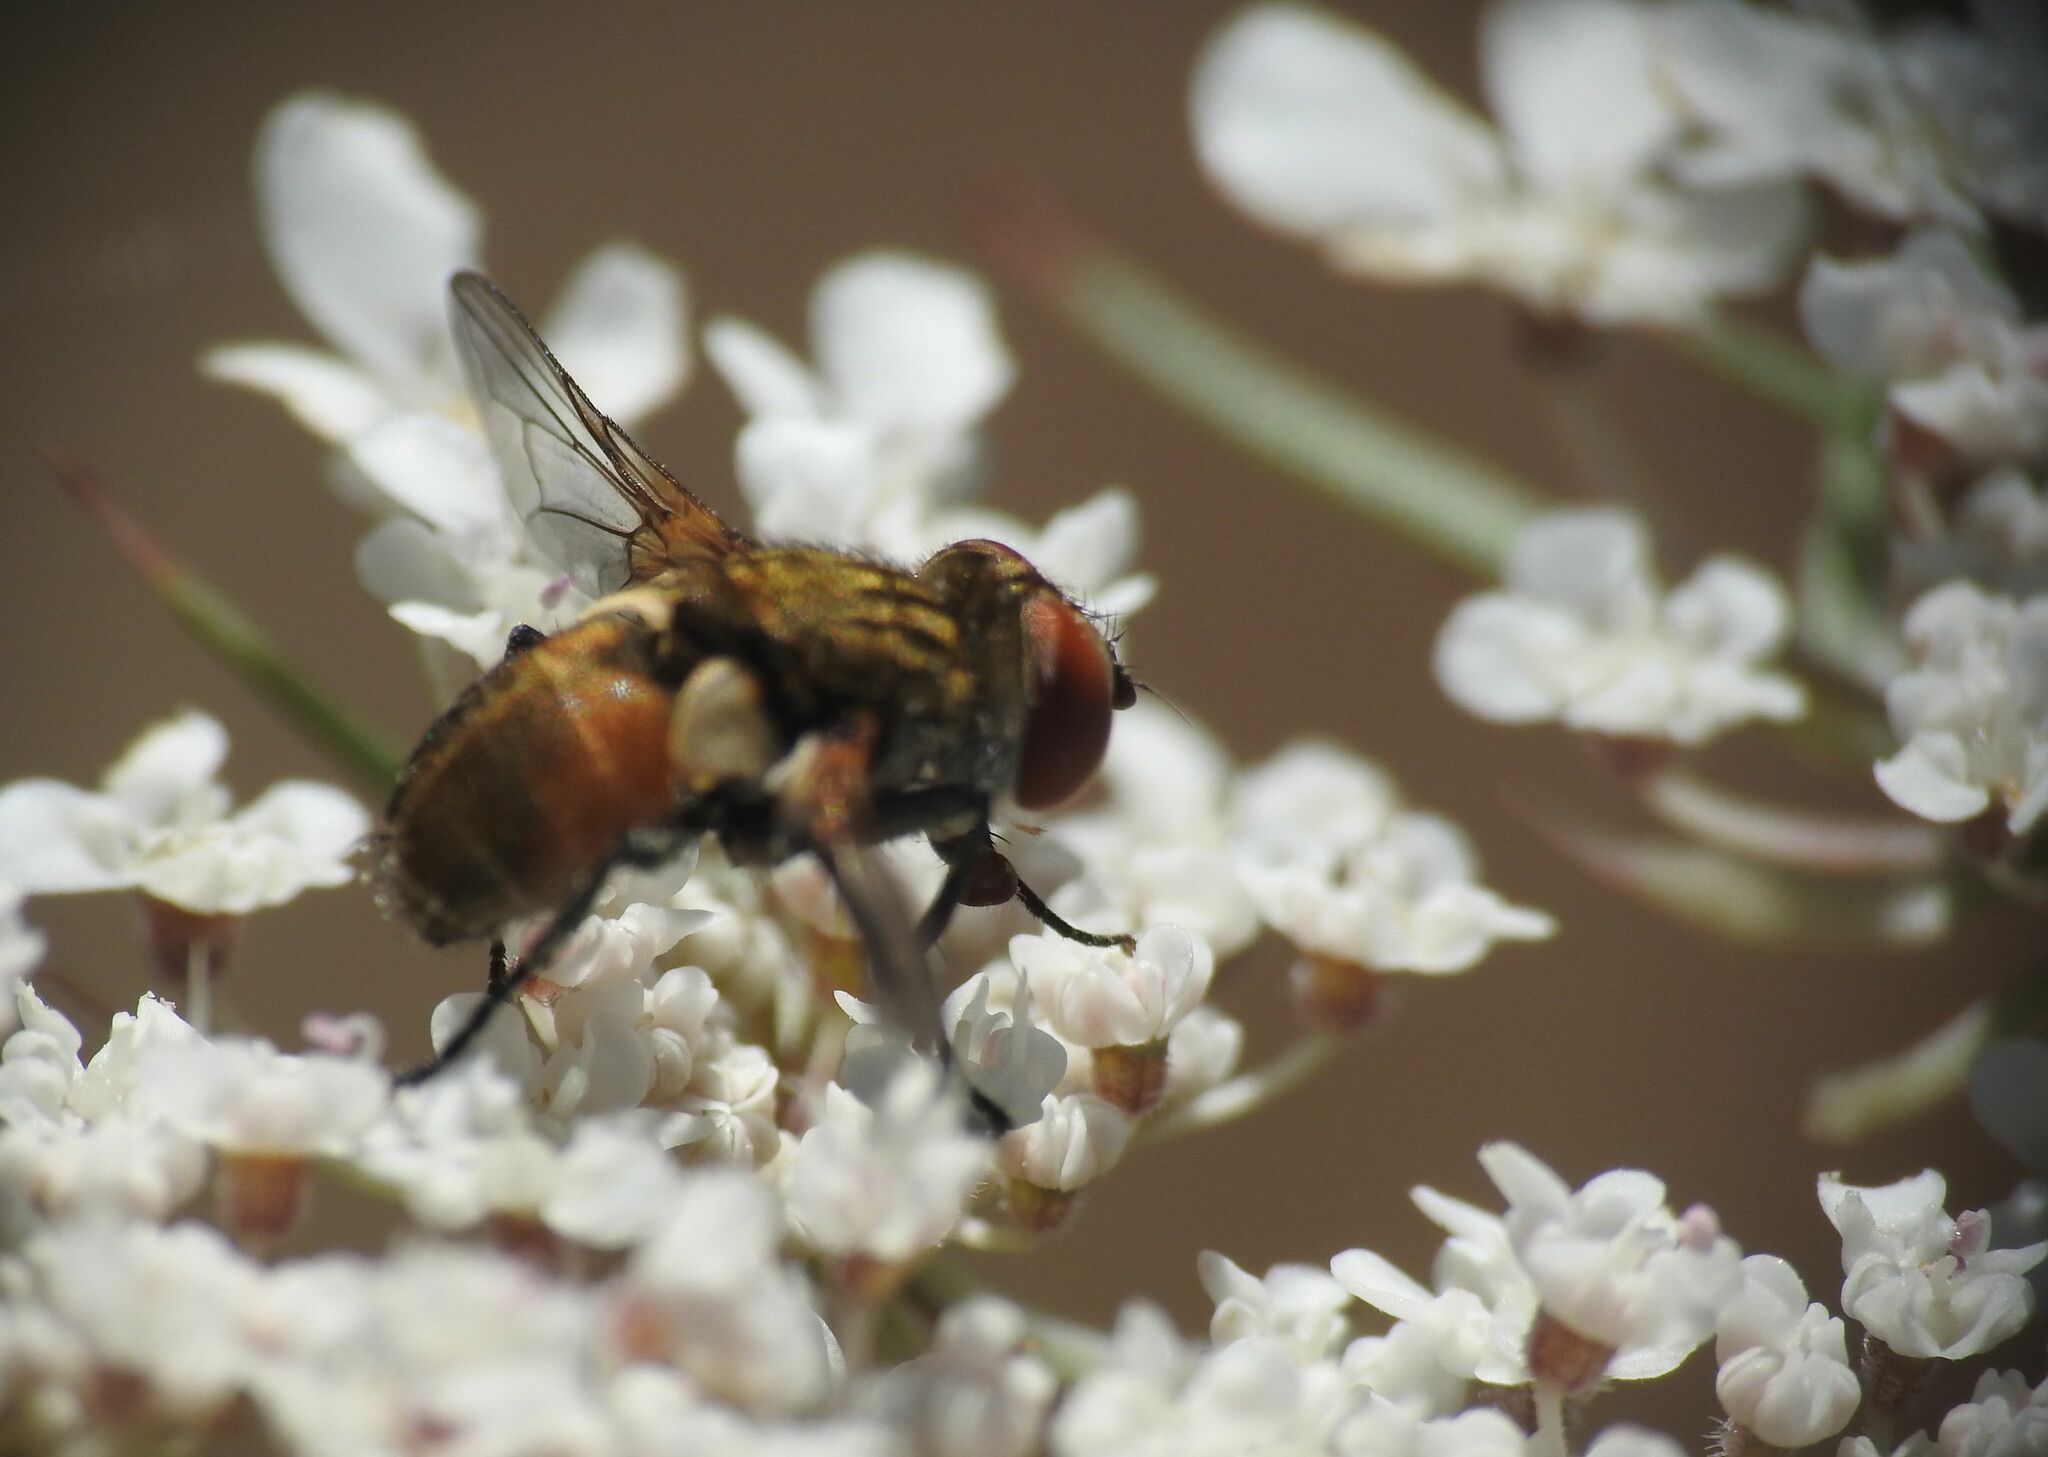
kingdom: Animalia
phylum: Arthropoda
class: Insecta
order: Diptera
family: Tachinidae
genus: Clytiomya
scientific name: Clytiomya continua
